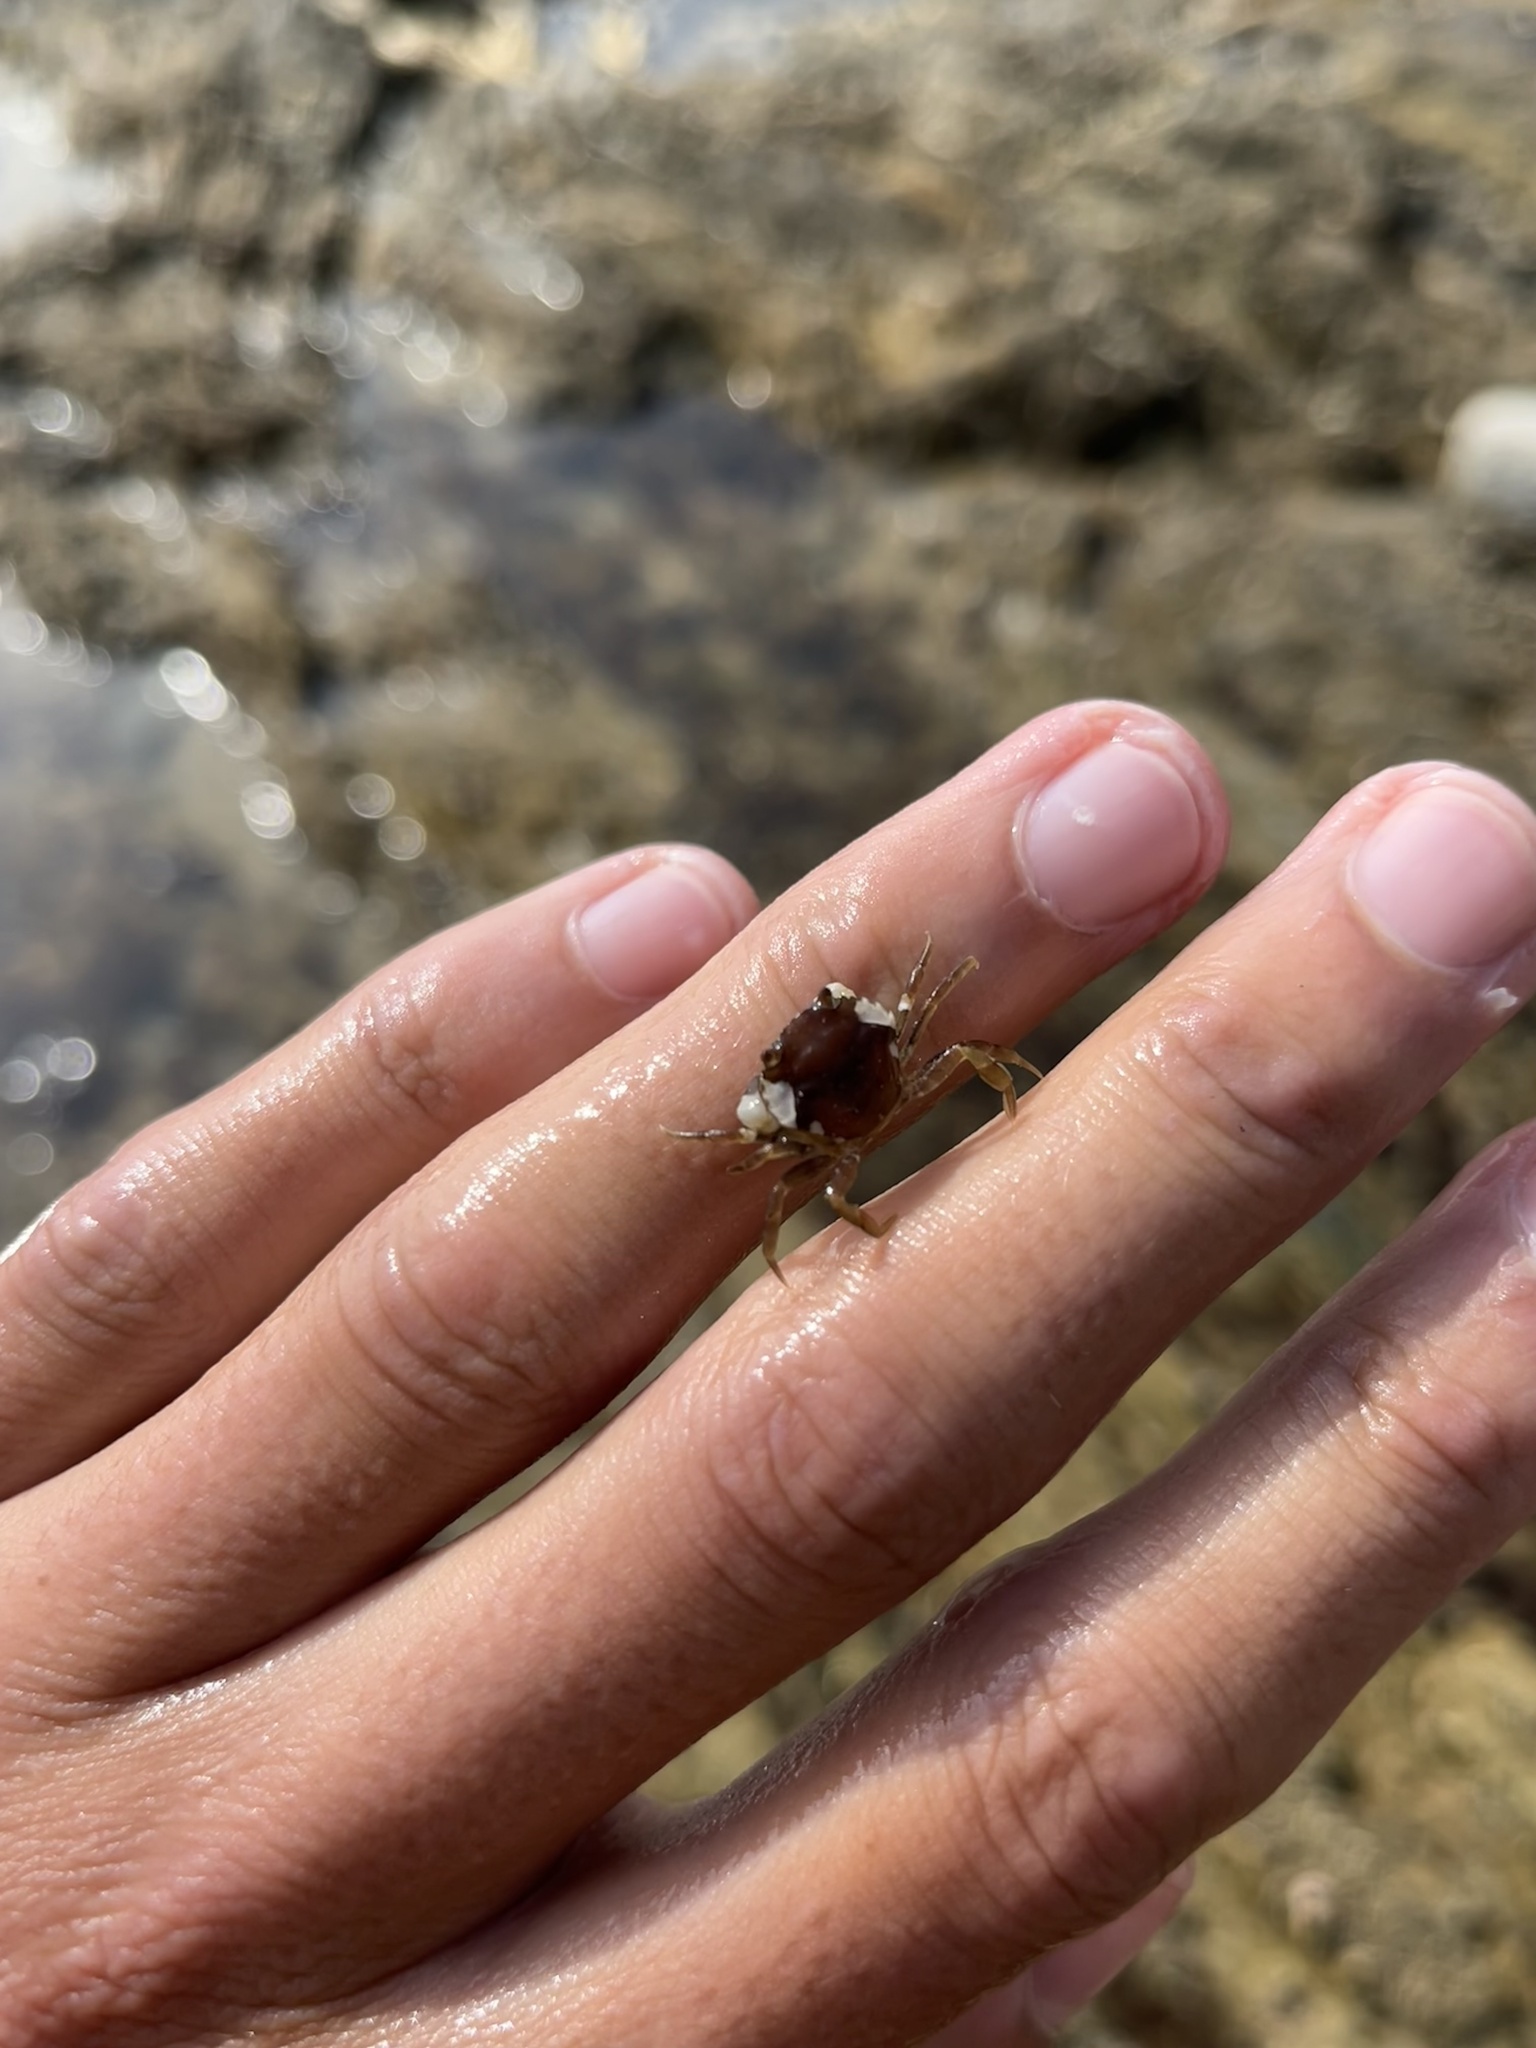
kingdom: Animalia
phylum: Arthropoda
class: Malacostraca
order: Decapoda
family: Carcinidae
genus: Carcinus
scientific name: Carcinus maenas
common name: European green crab
